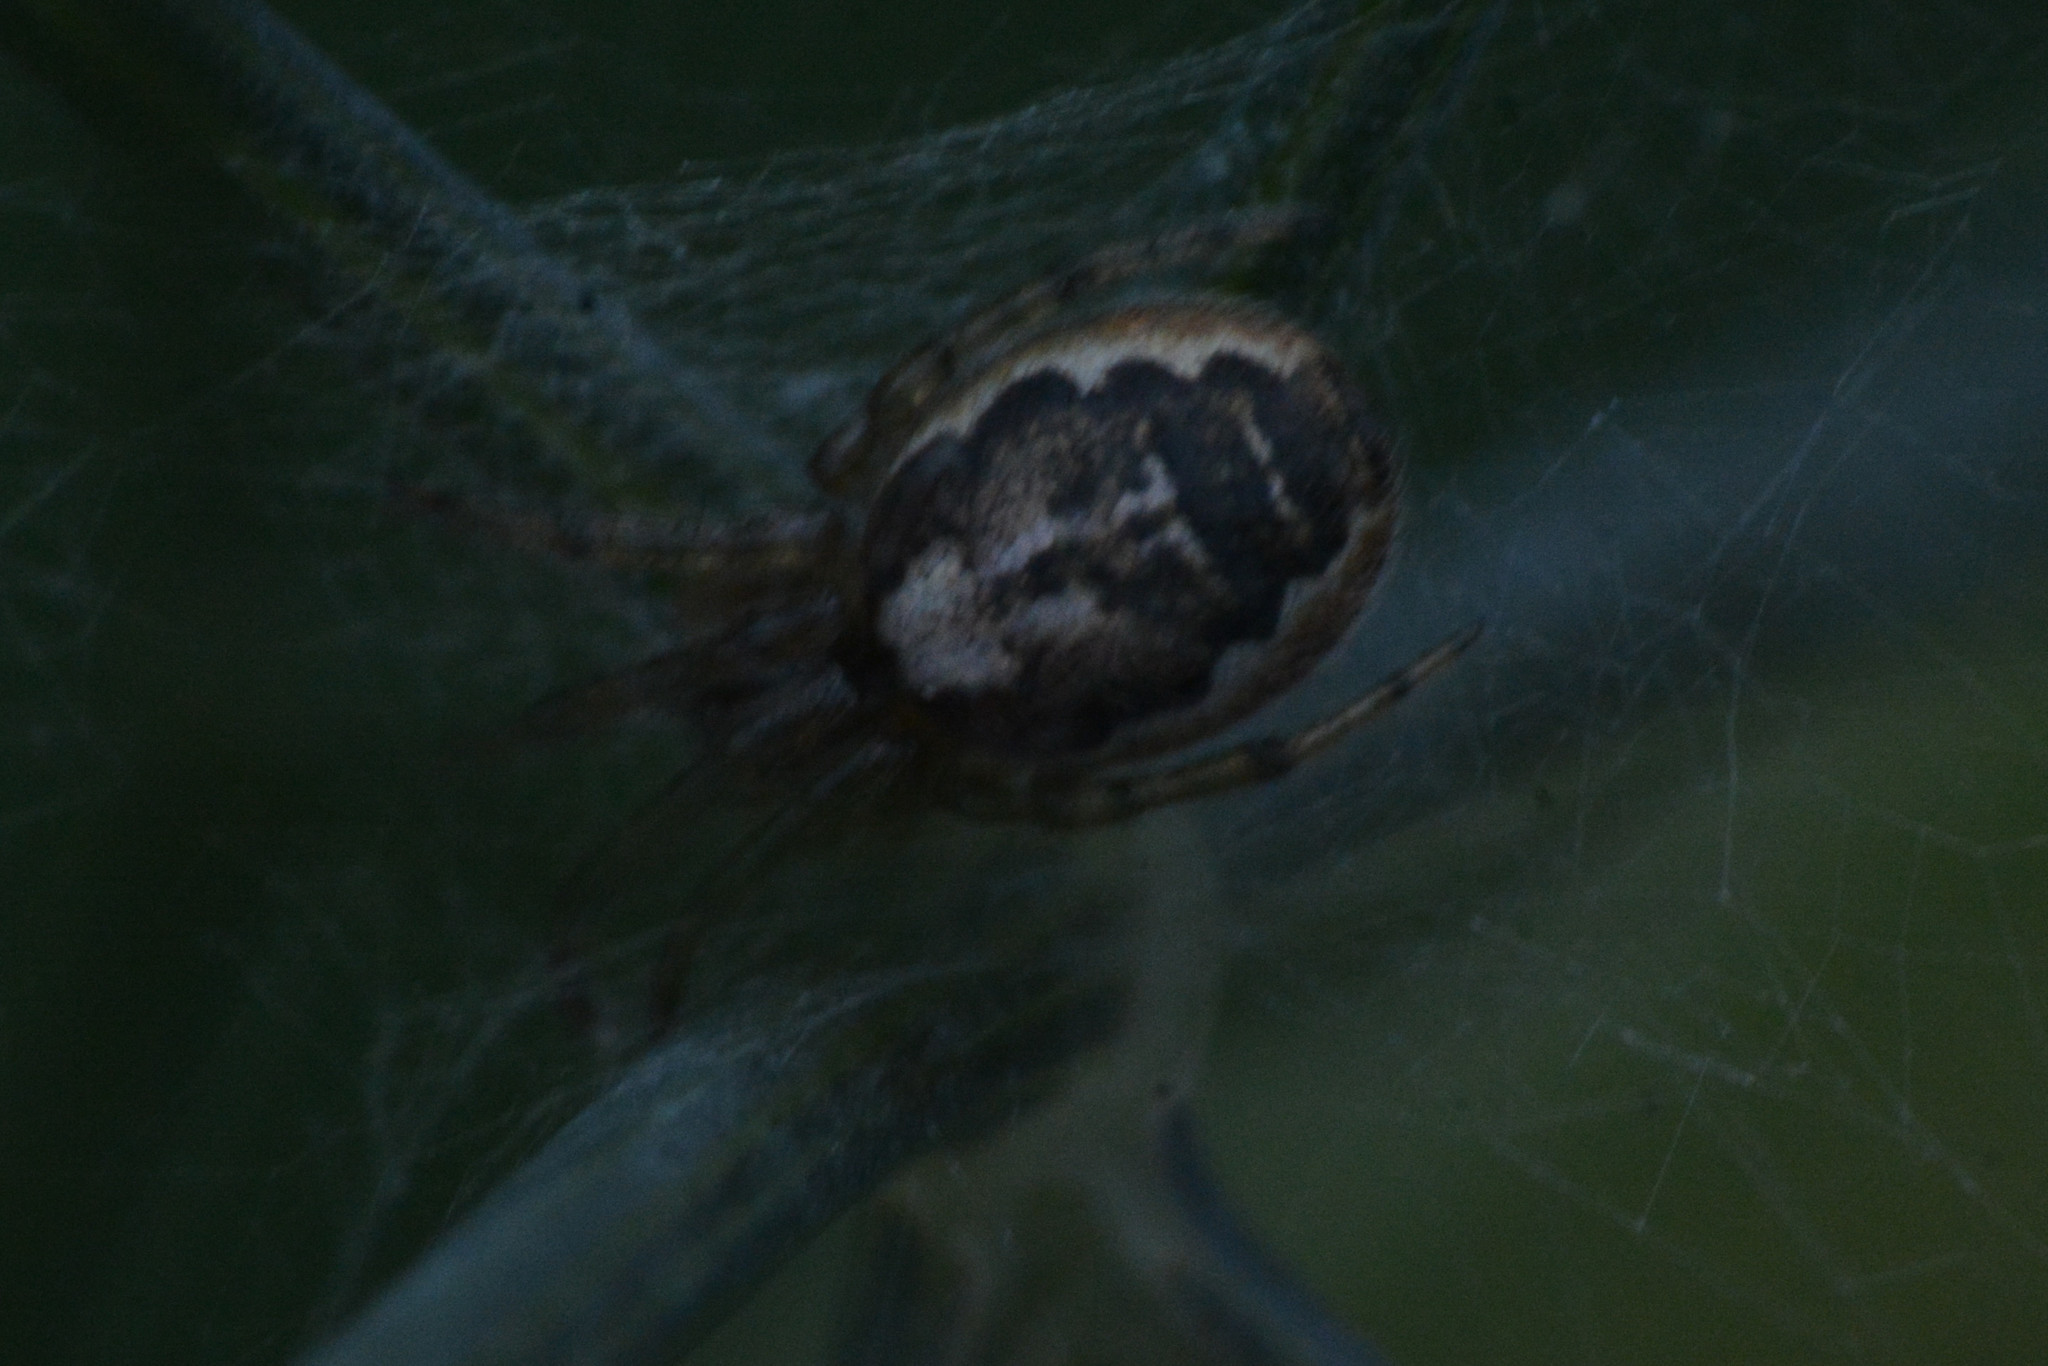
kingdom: Animalia
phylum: Arthropoda
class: Arachnida
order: Araneae
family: Araneidae
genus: Zygiella
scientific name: Zygiella x-notata
